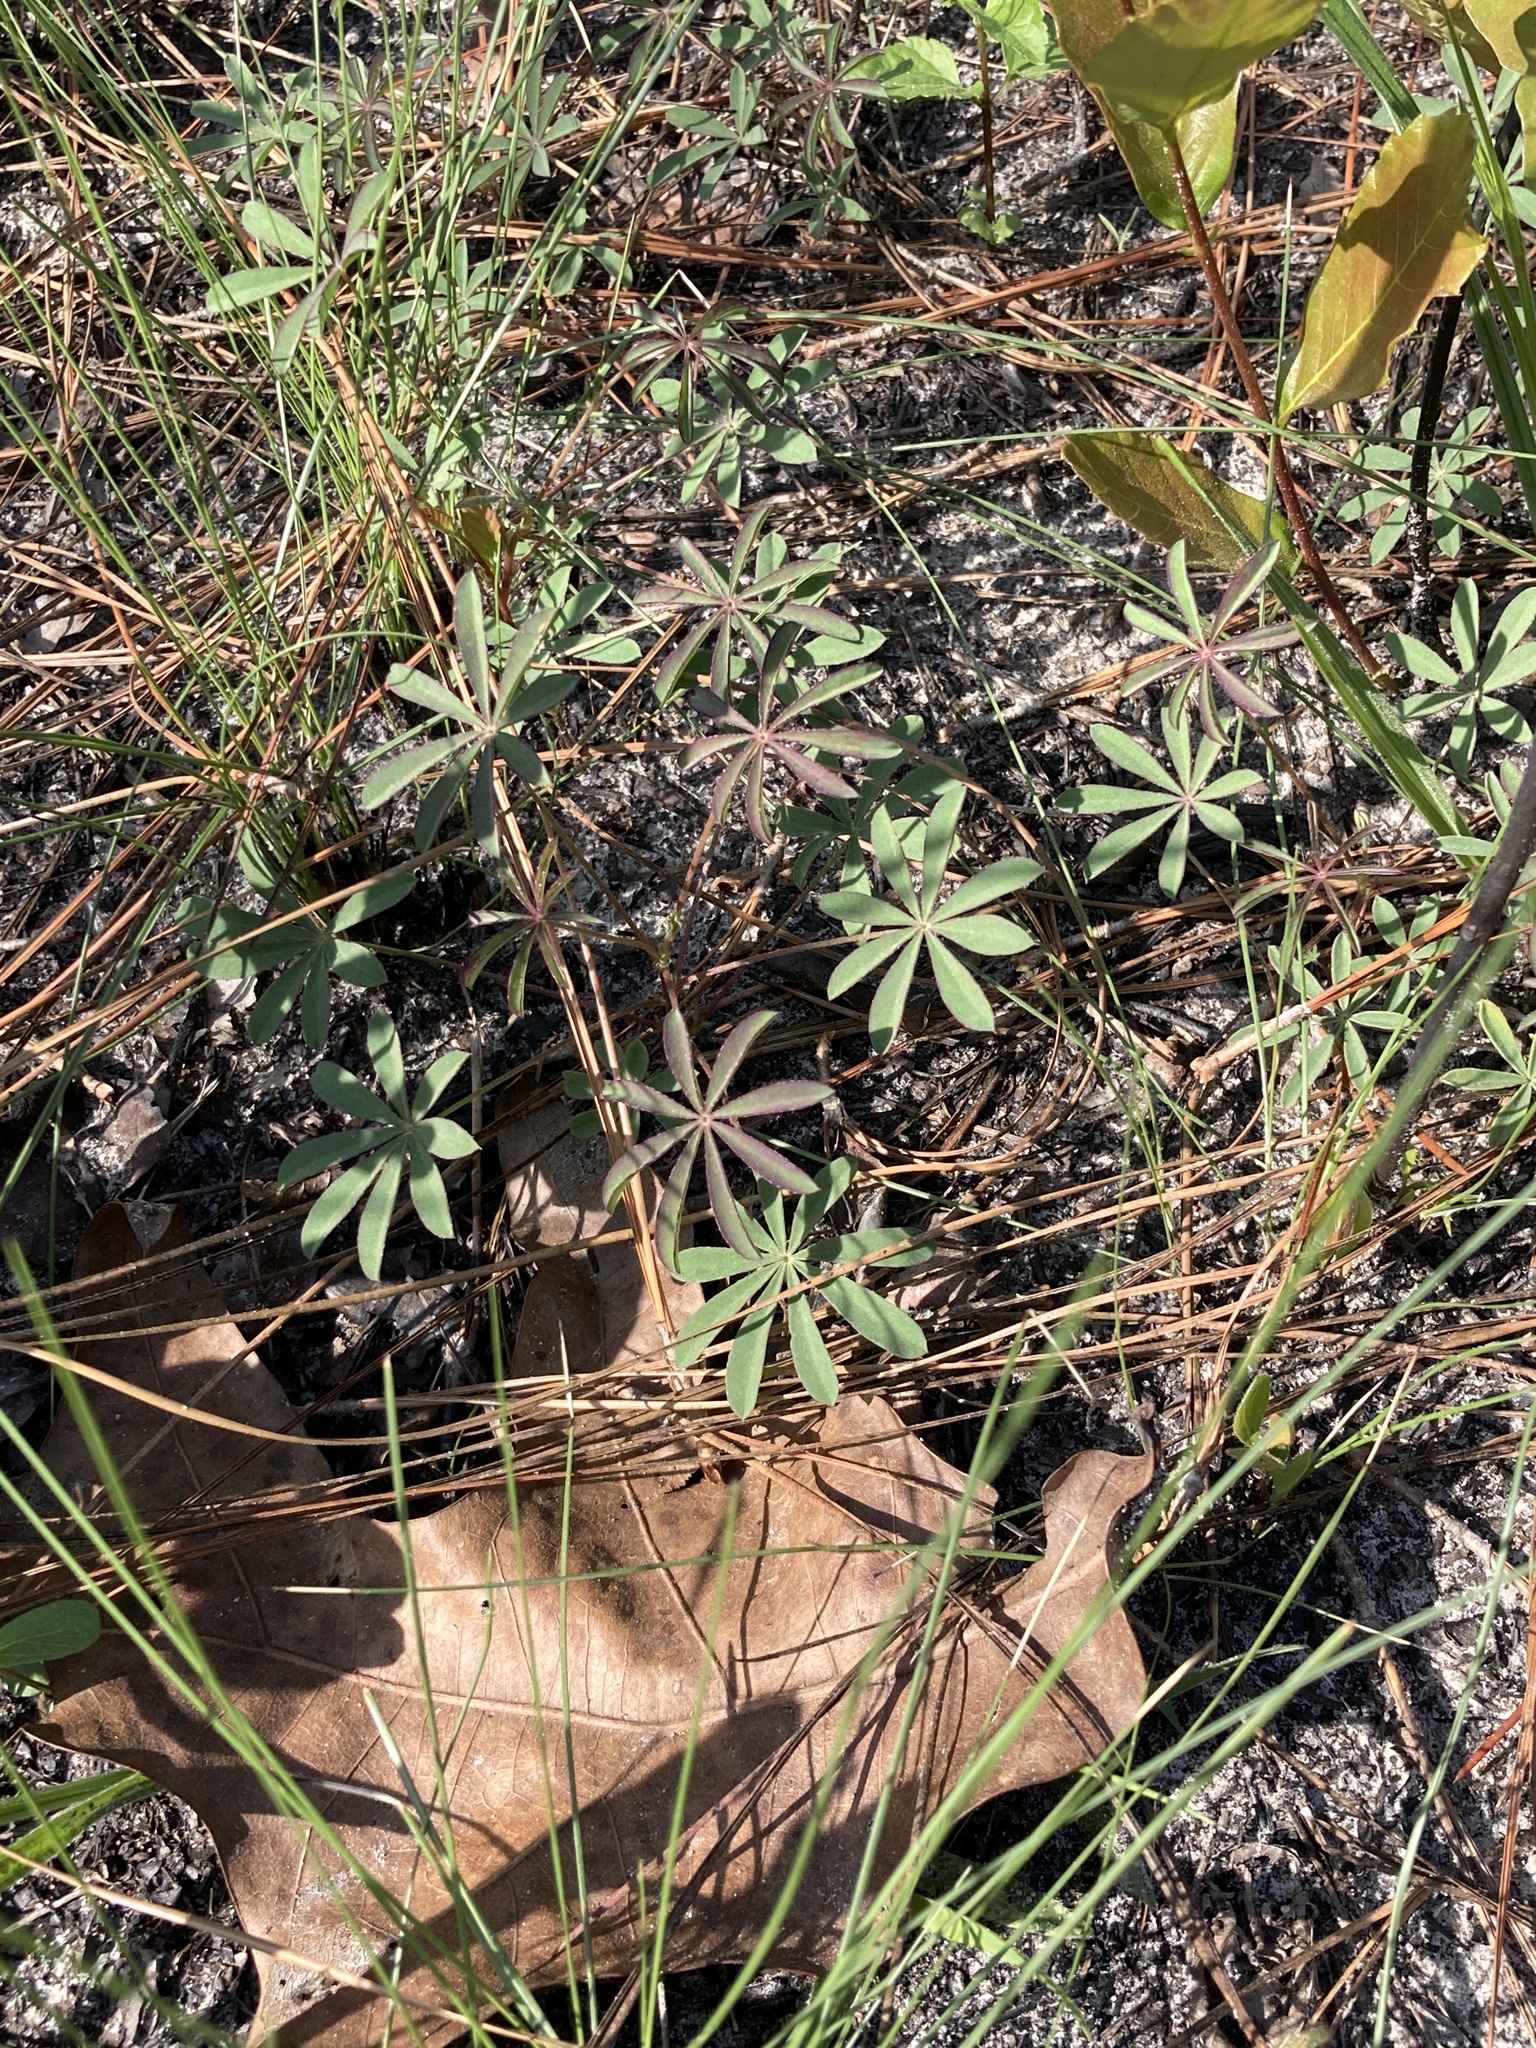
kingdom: Plantae
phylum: Tracheophyta
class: Magnoliopsida
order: Fabales
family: Fabaceae
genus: Lupinus
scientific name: Lupinus perennis
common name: Sundial lupine
